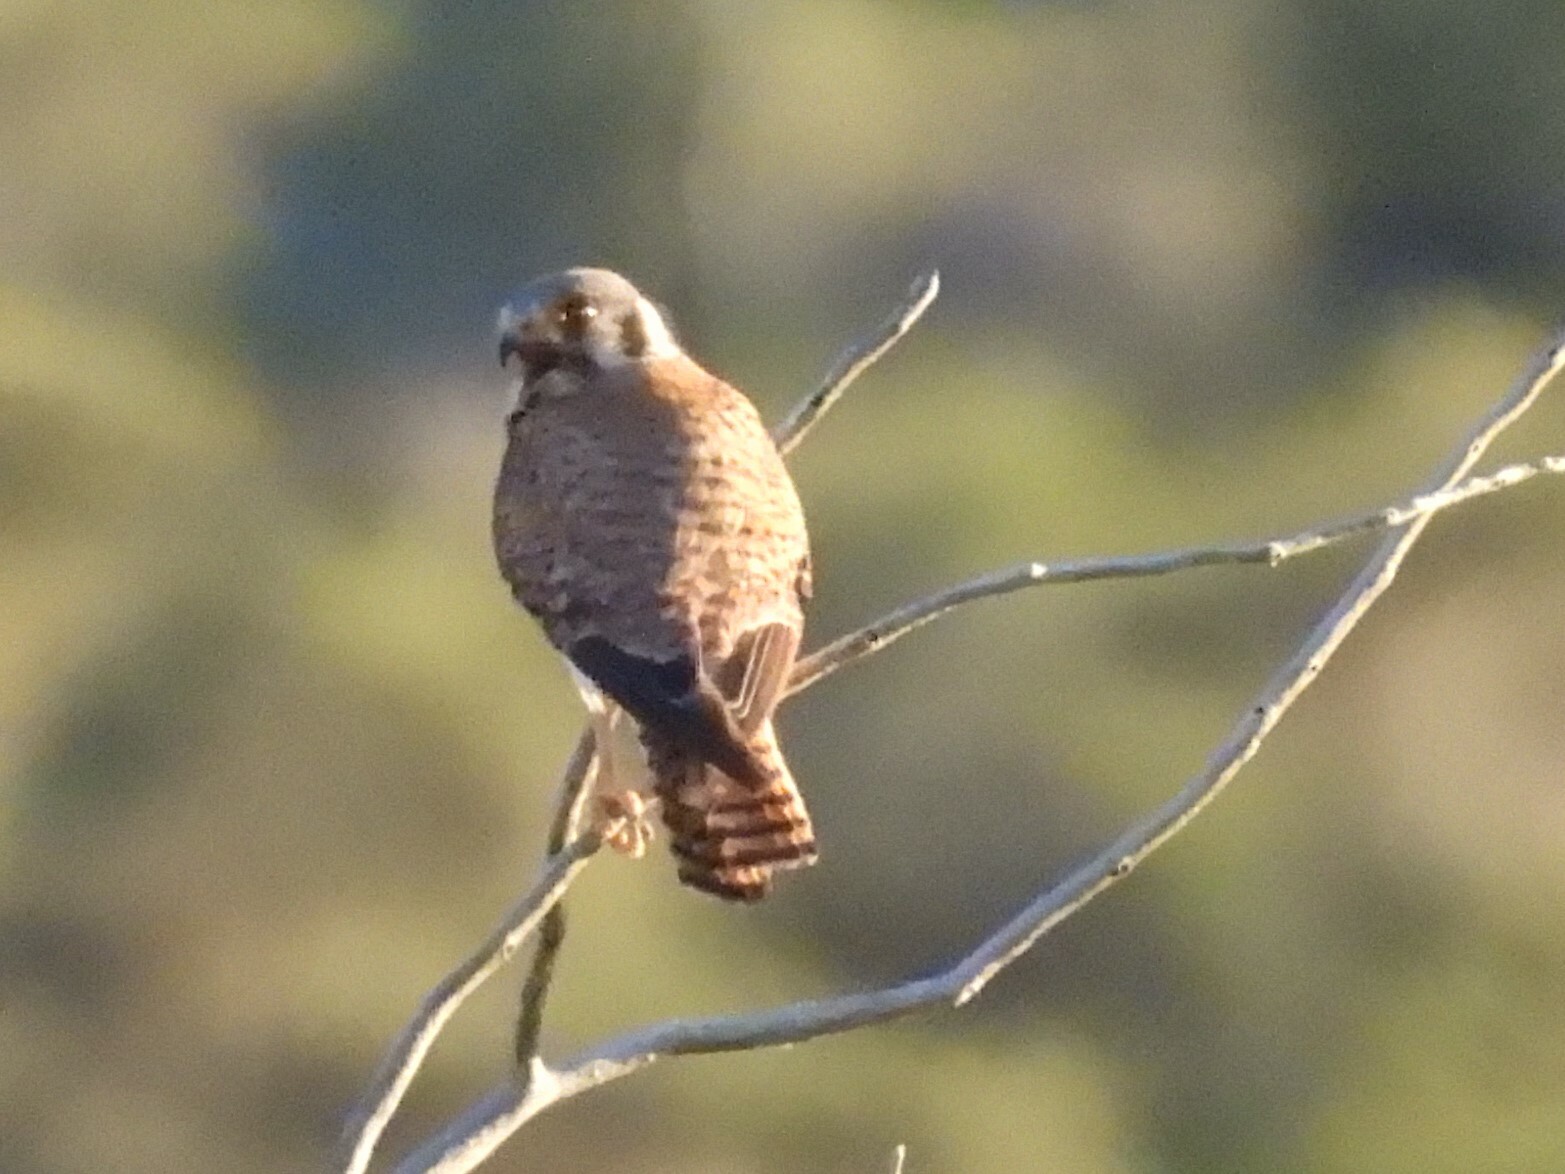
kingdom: Animalia
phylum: Chordata
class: Aves
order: Falconiformes
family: Falconidae
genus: Falco
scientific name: Falco sparverius
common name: American kestrel
